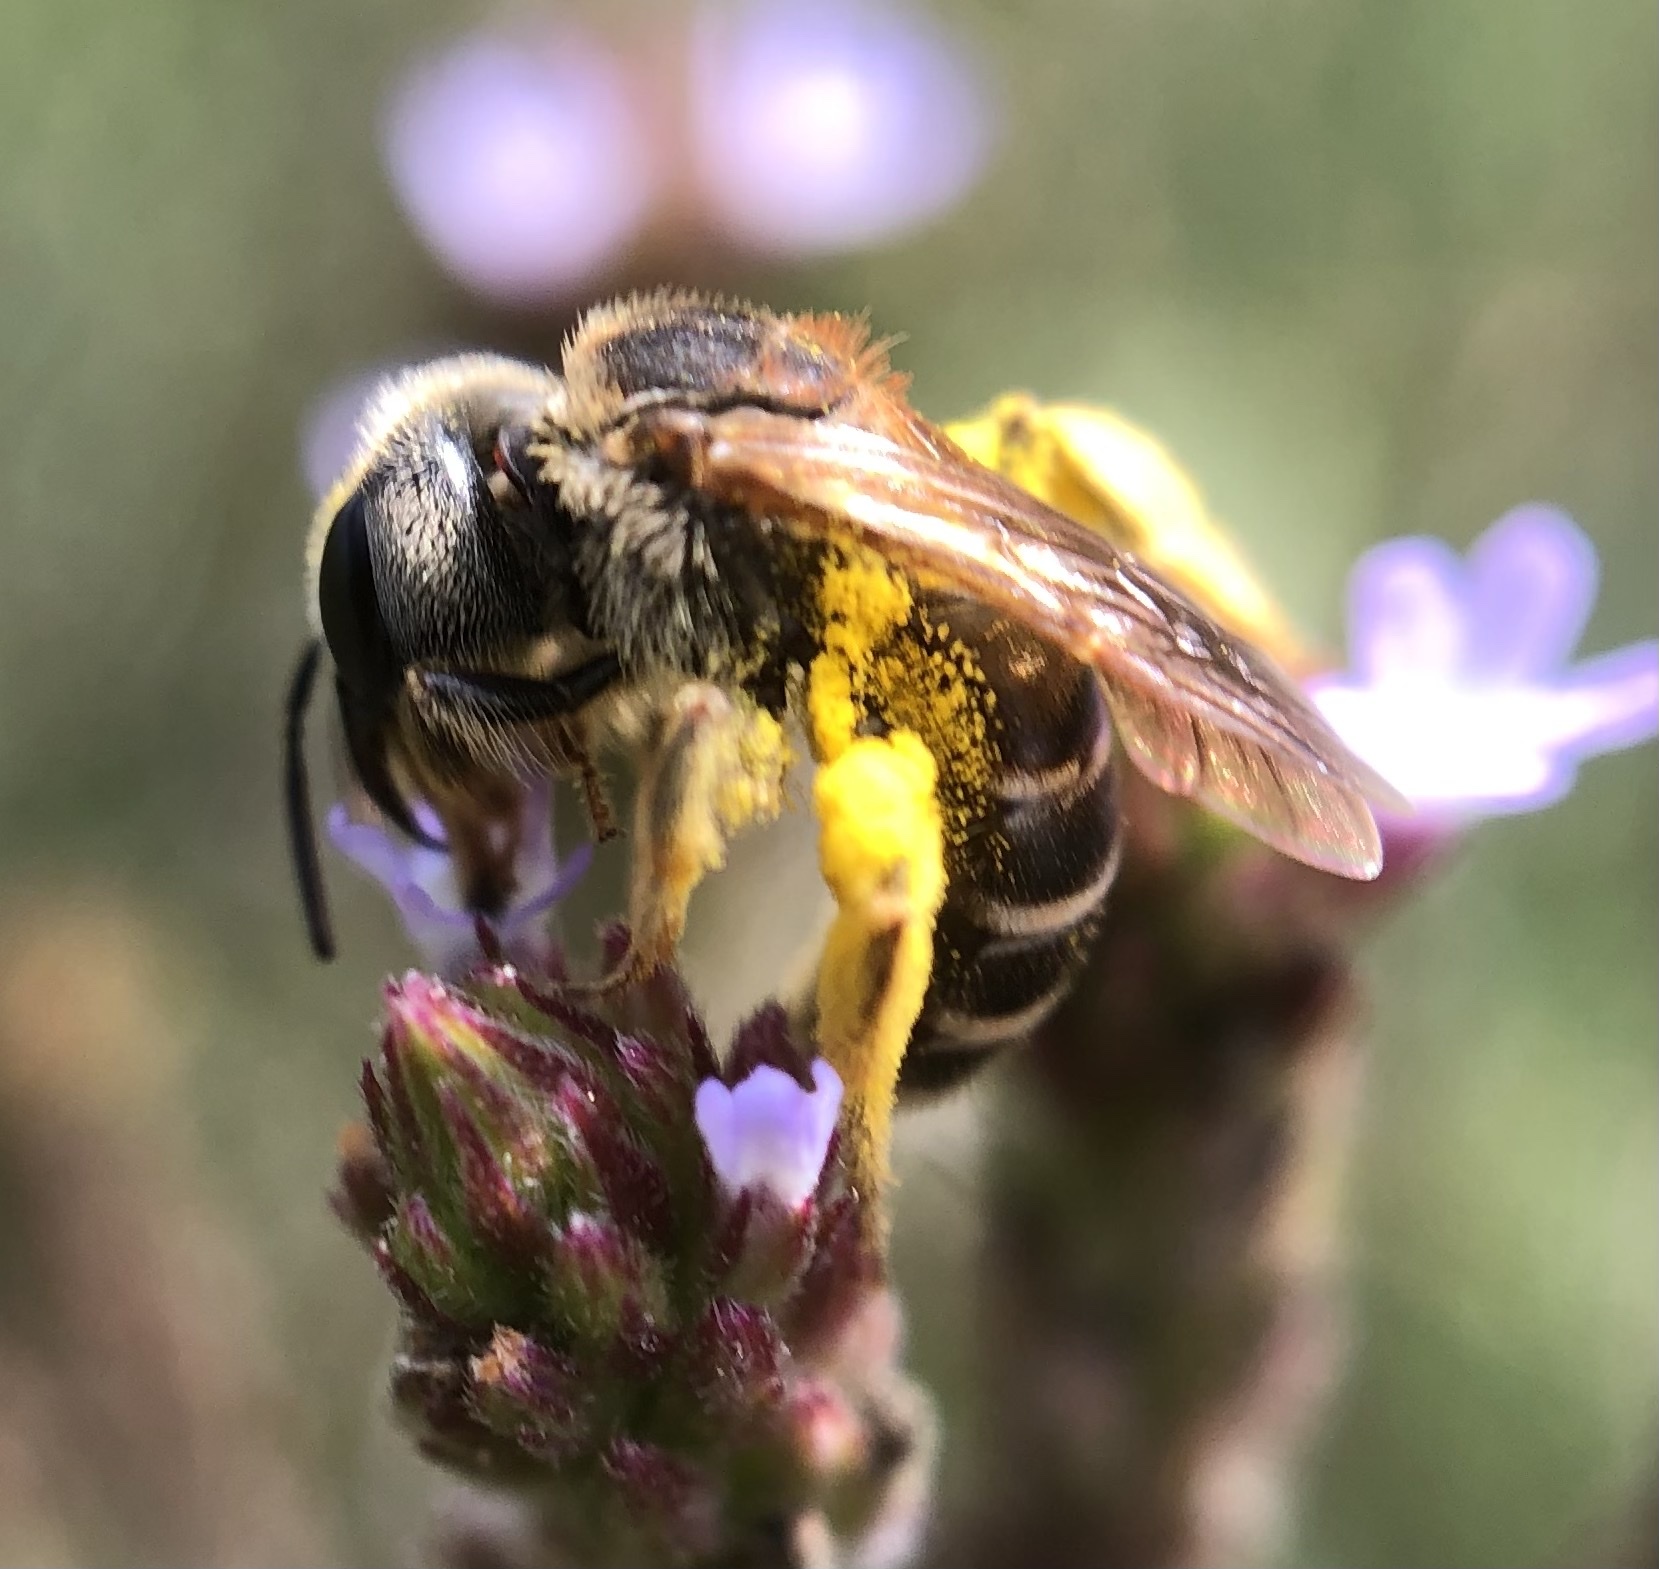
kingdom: Animalia
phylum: Arthropoda
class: Insecta
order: Hymenoptera
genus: Odontalictus
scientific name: Odontalictus
